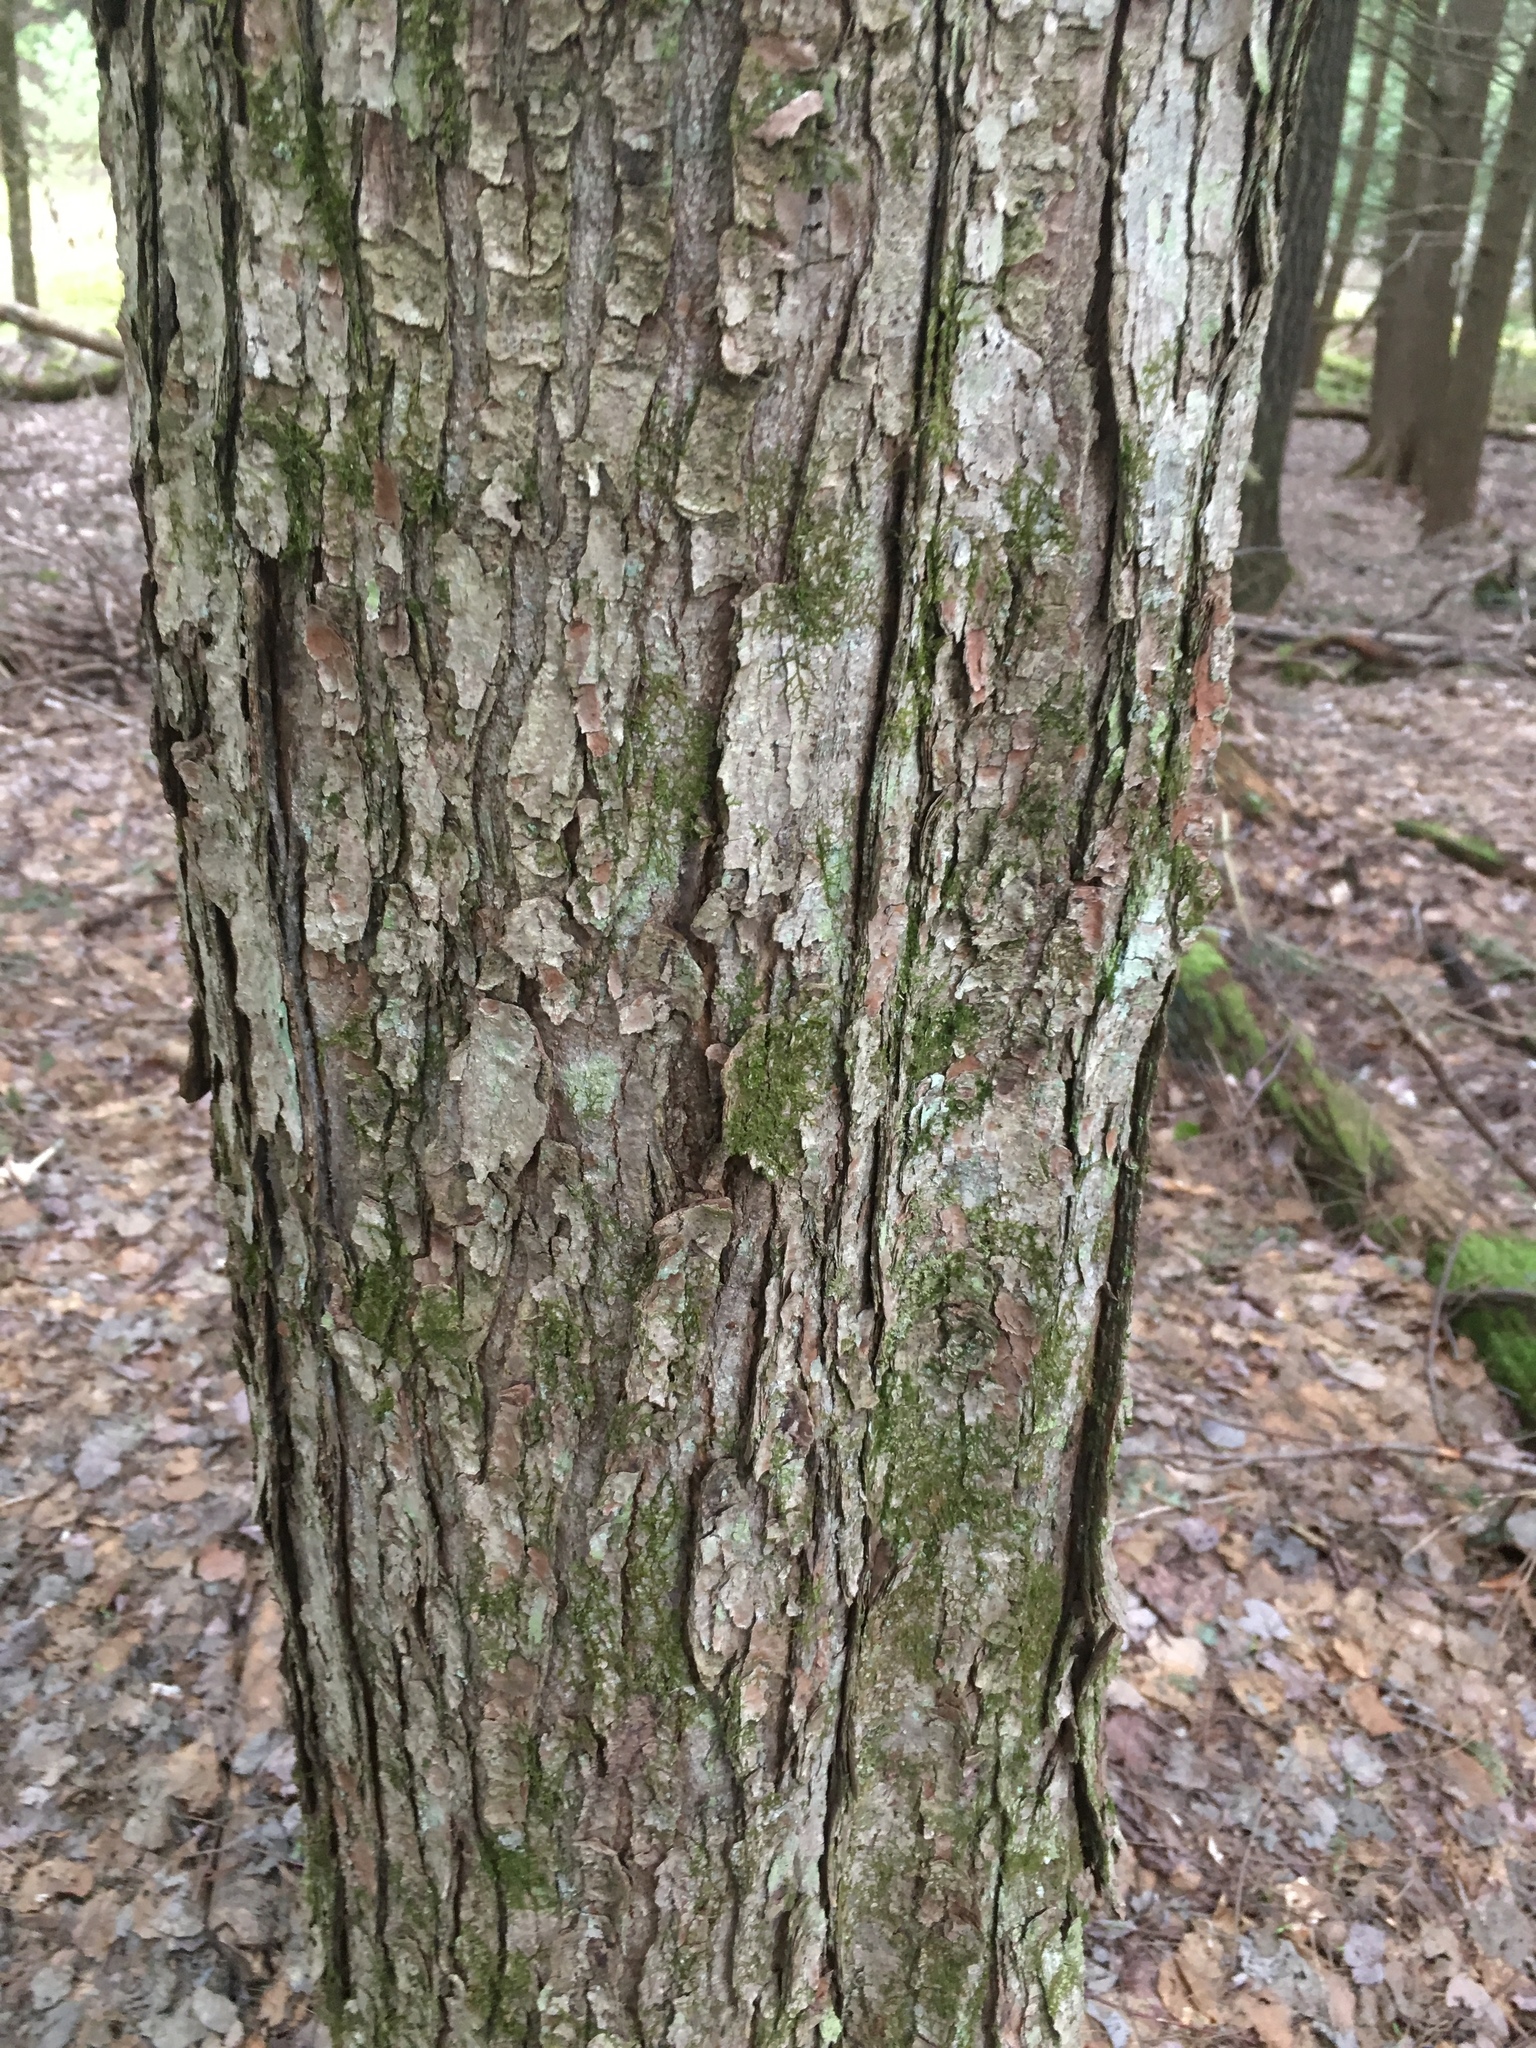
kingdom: Plantae
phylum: Tracheophyta
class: Magnoliopsida
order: Sapindales
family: Sapindaceae
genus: Acer
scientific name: Acer rubrum
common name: Red maple
